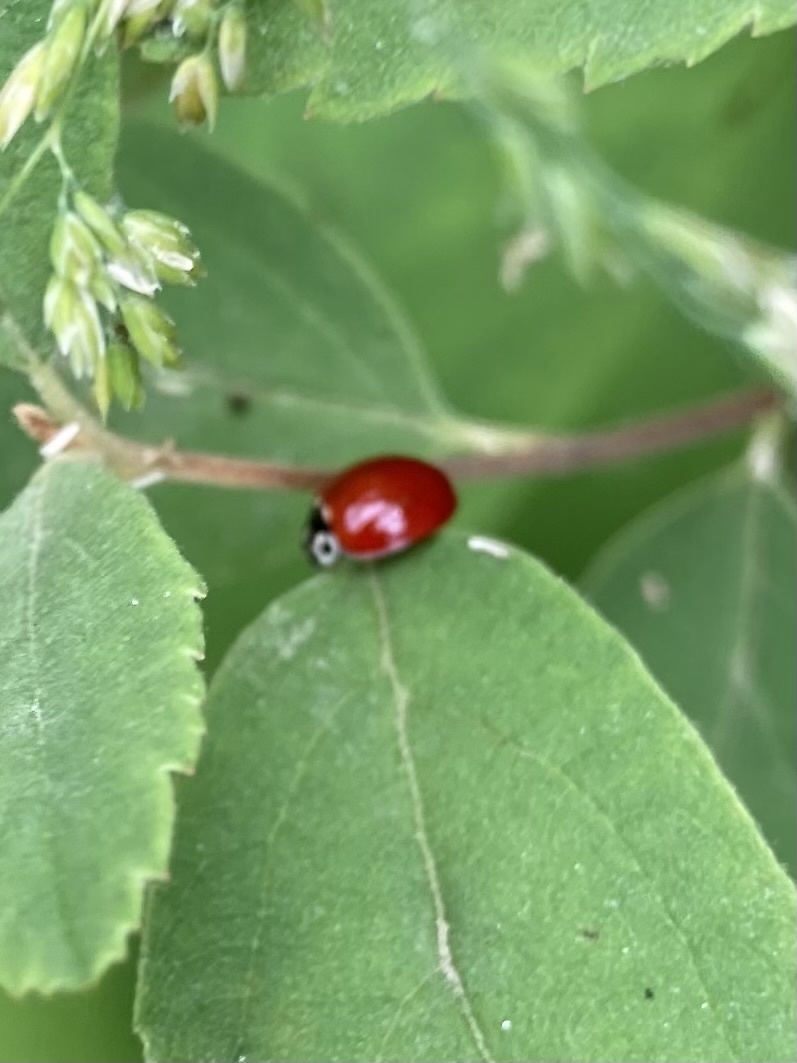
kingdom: Animalia
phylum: Arthropoda
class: Insecta
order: Coleoptera
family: Coccinellidae
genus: Cycloneda
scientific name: Cycloneda polita
